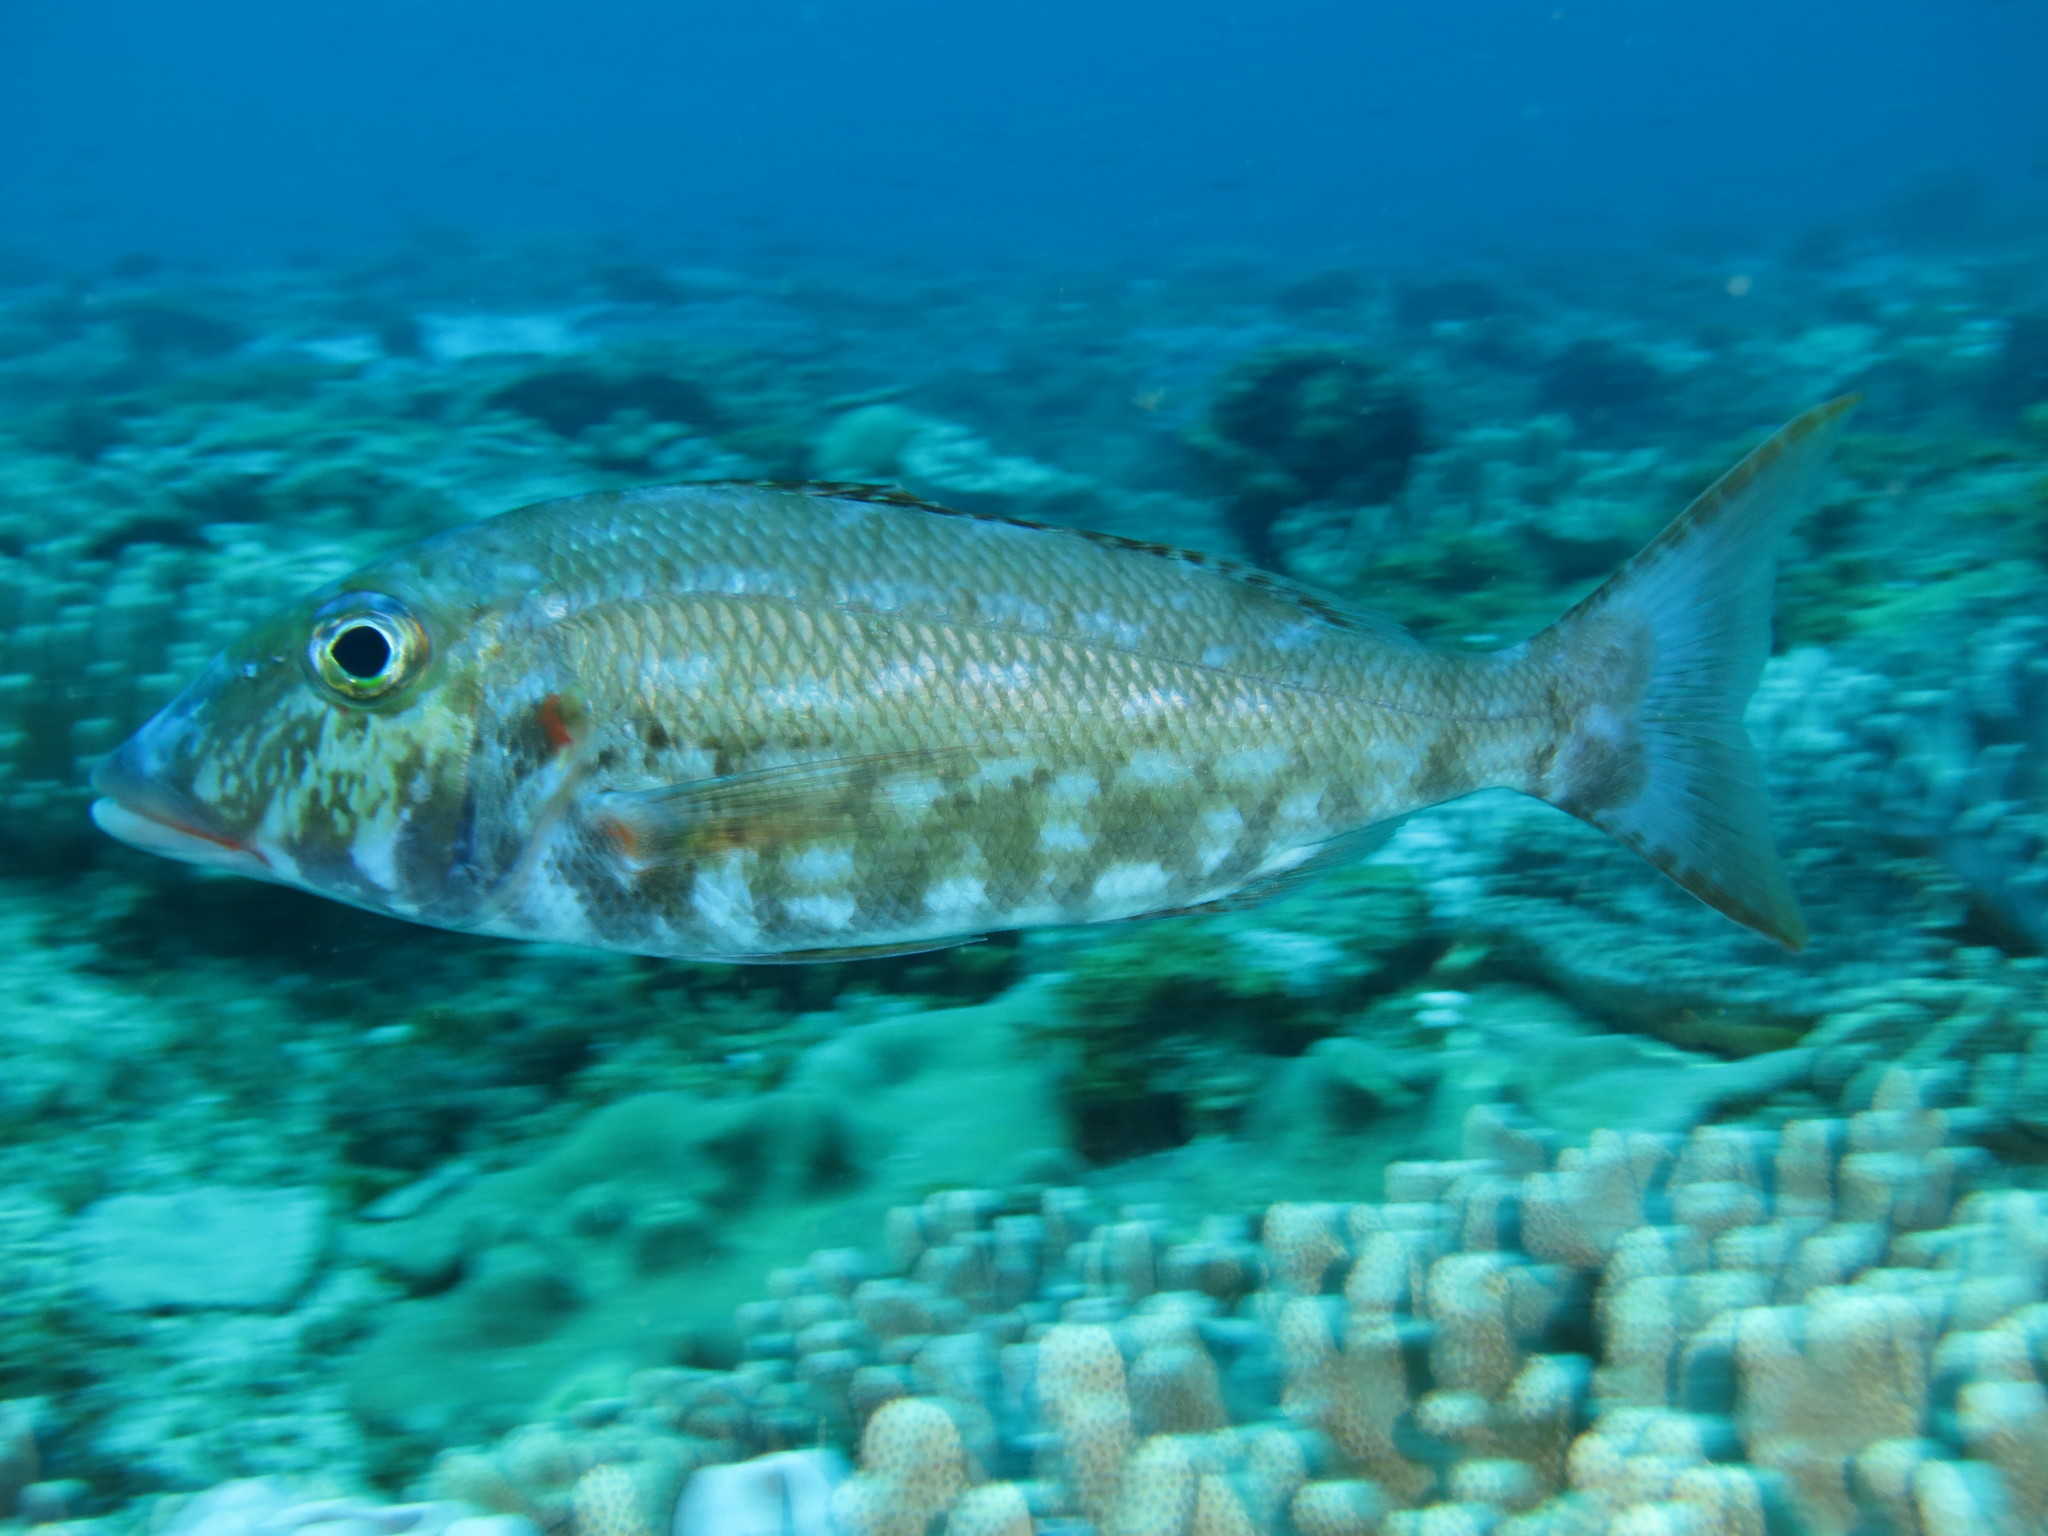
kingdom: Animalia
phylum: Chordata
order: Perciformes
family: Lethrinidae
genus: Lethrinus
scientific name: Lethrinus rubrioperculatus
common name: Spotcheek emperor
